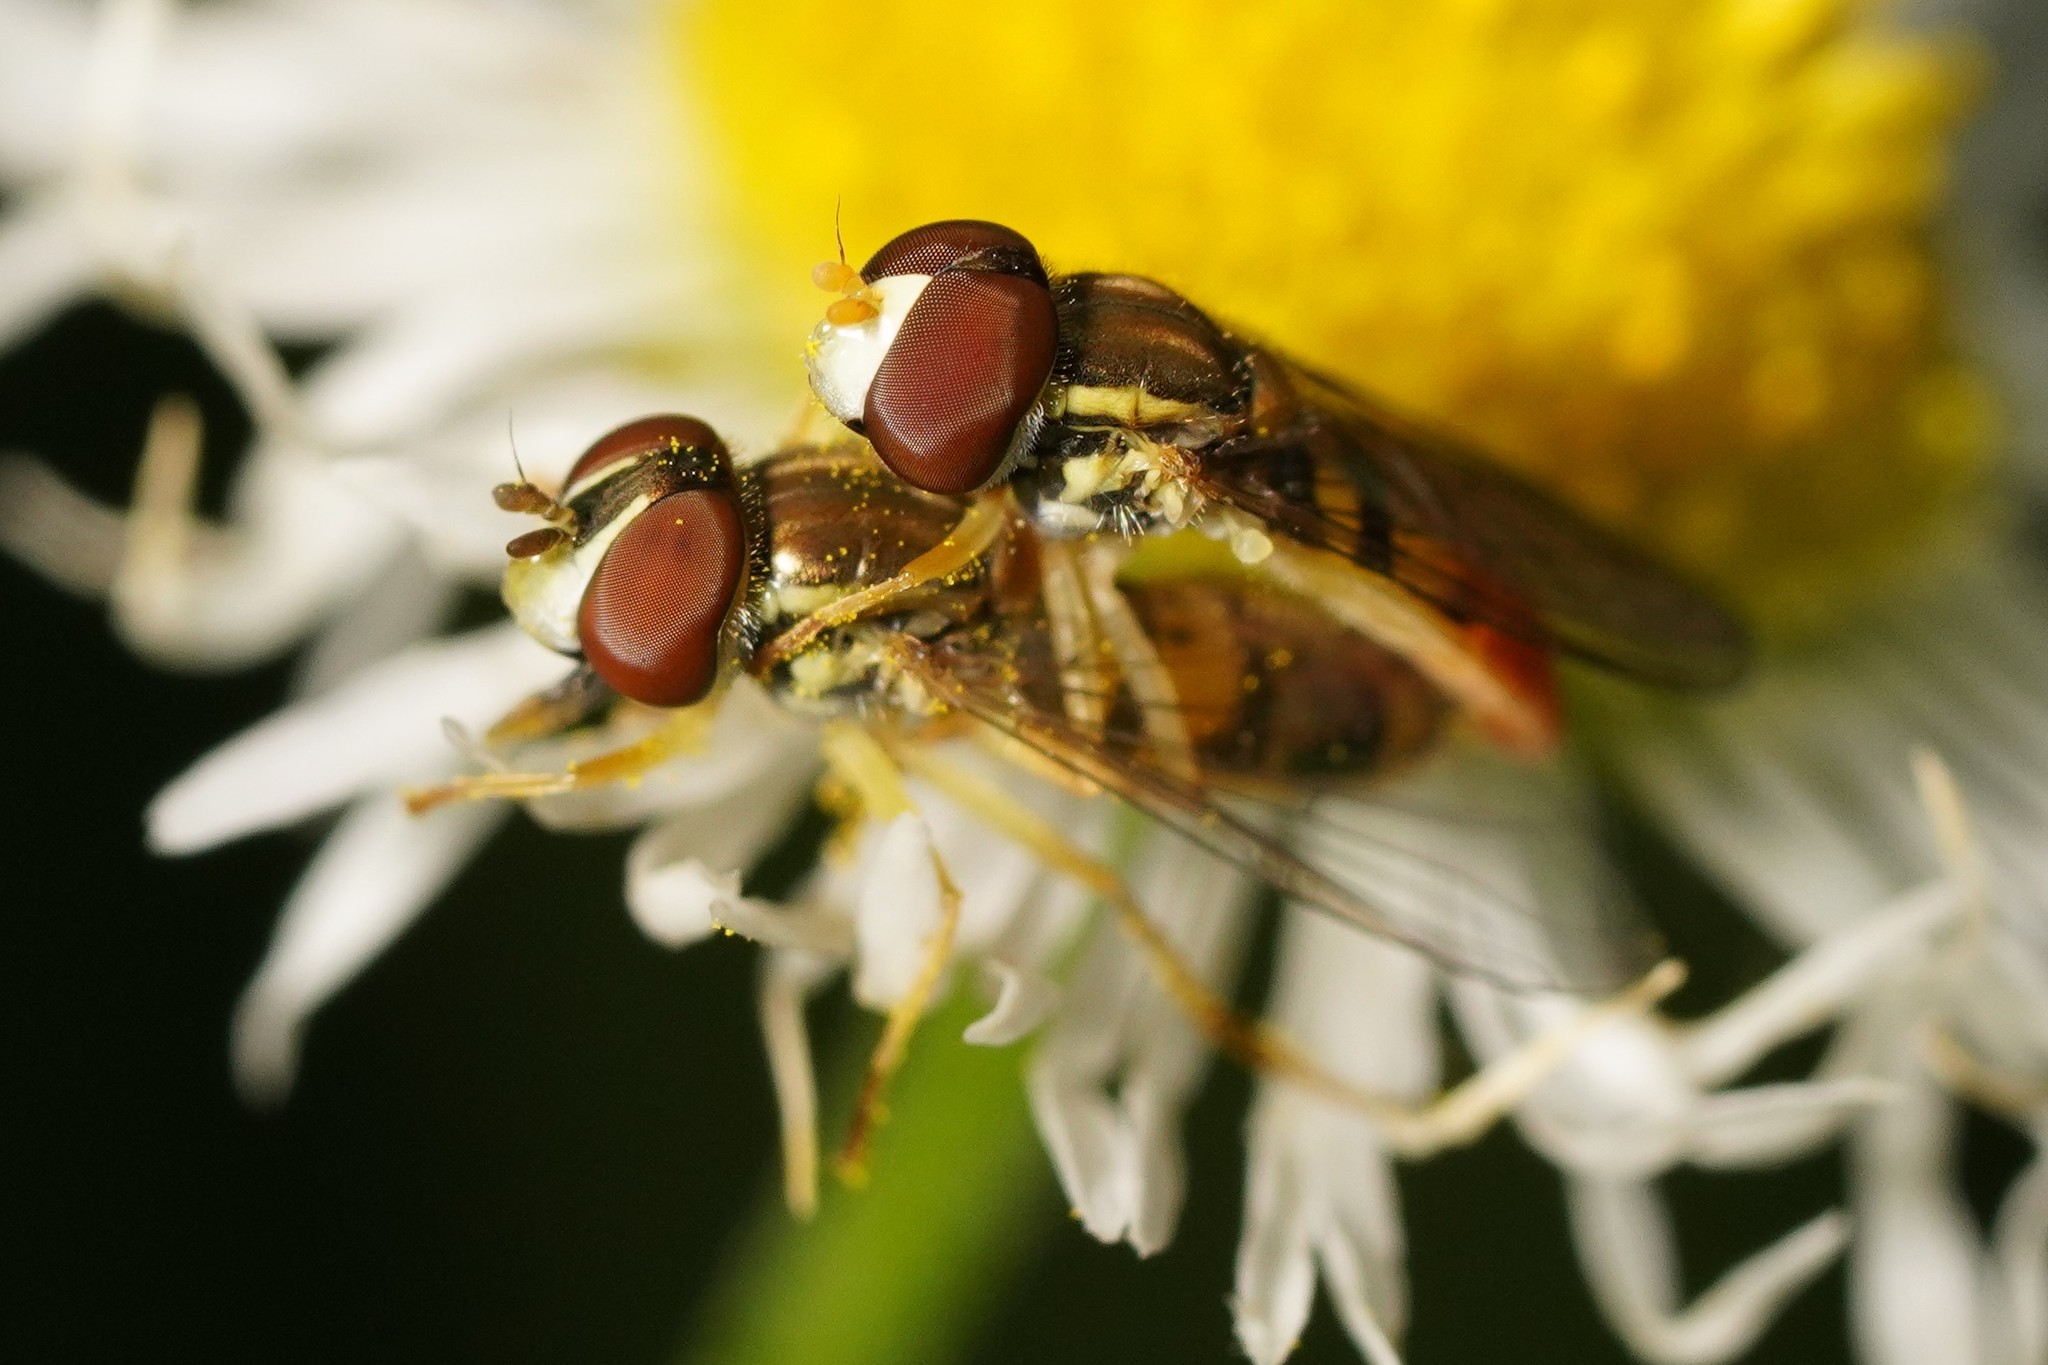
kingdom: Animalia
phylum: Arthropoda
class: Insecta
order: Diptera
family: Syrphidae
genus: Toxomerus
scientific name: Toxomerus marginatus
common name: Syrphid fly
